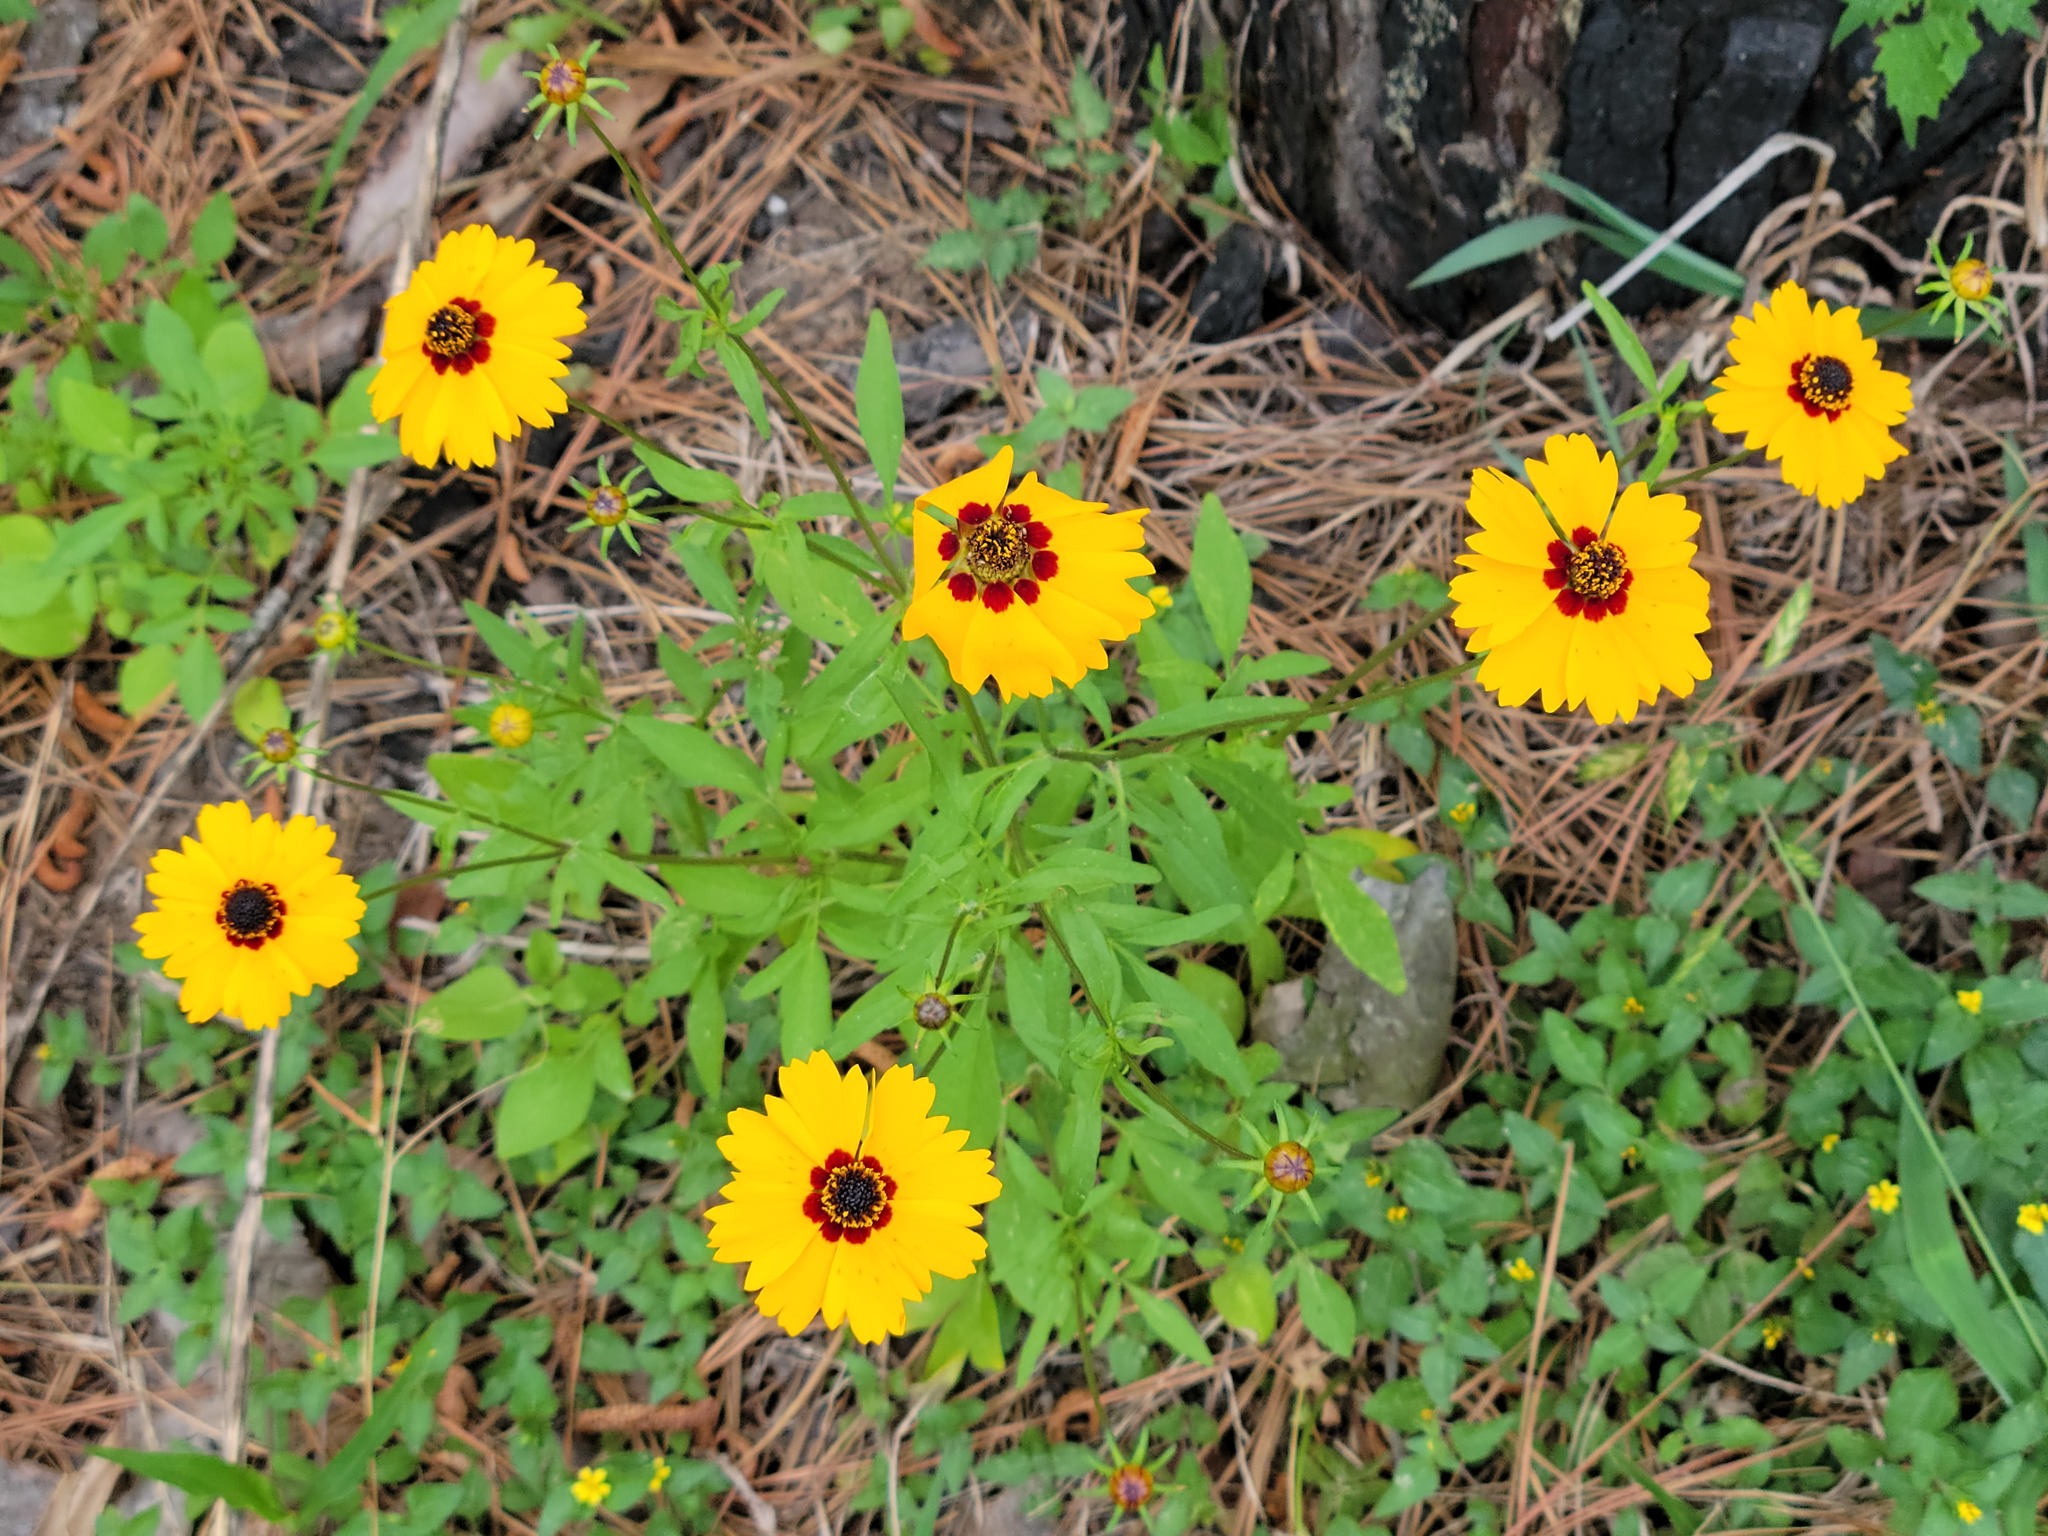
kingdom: Plantae
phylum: Tracheophyta
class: Magnoliopsida
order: Asterales
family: Asteraceae
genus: Coreopsis
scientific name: Coreopsis basalis
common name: Golden-mane coreopsis
